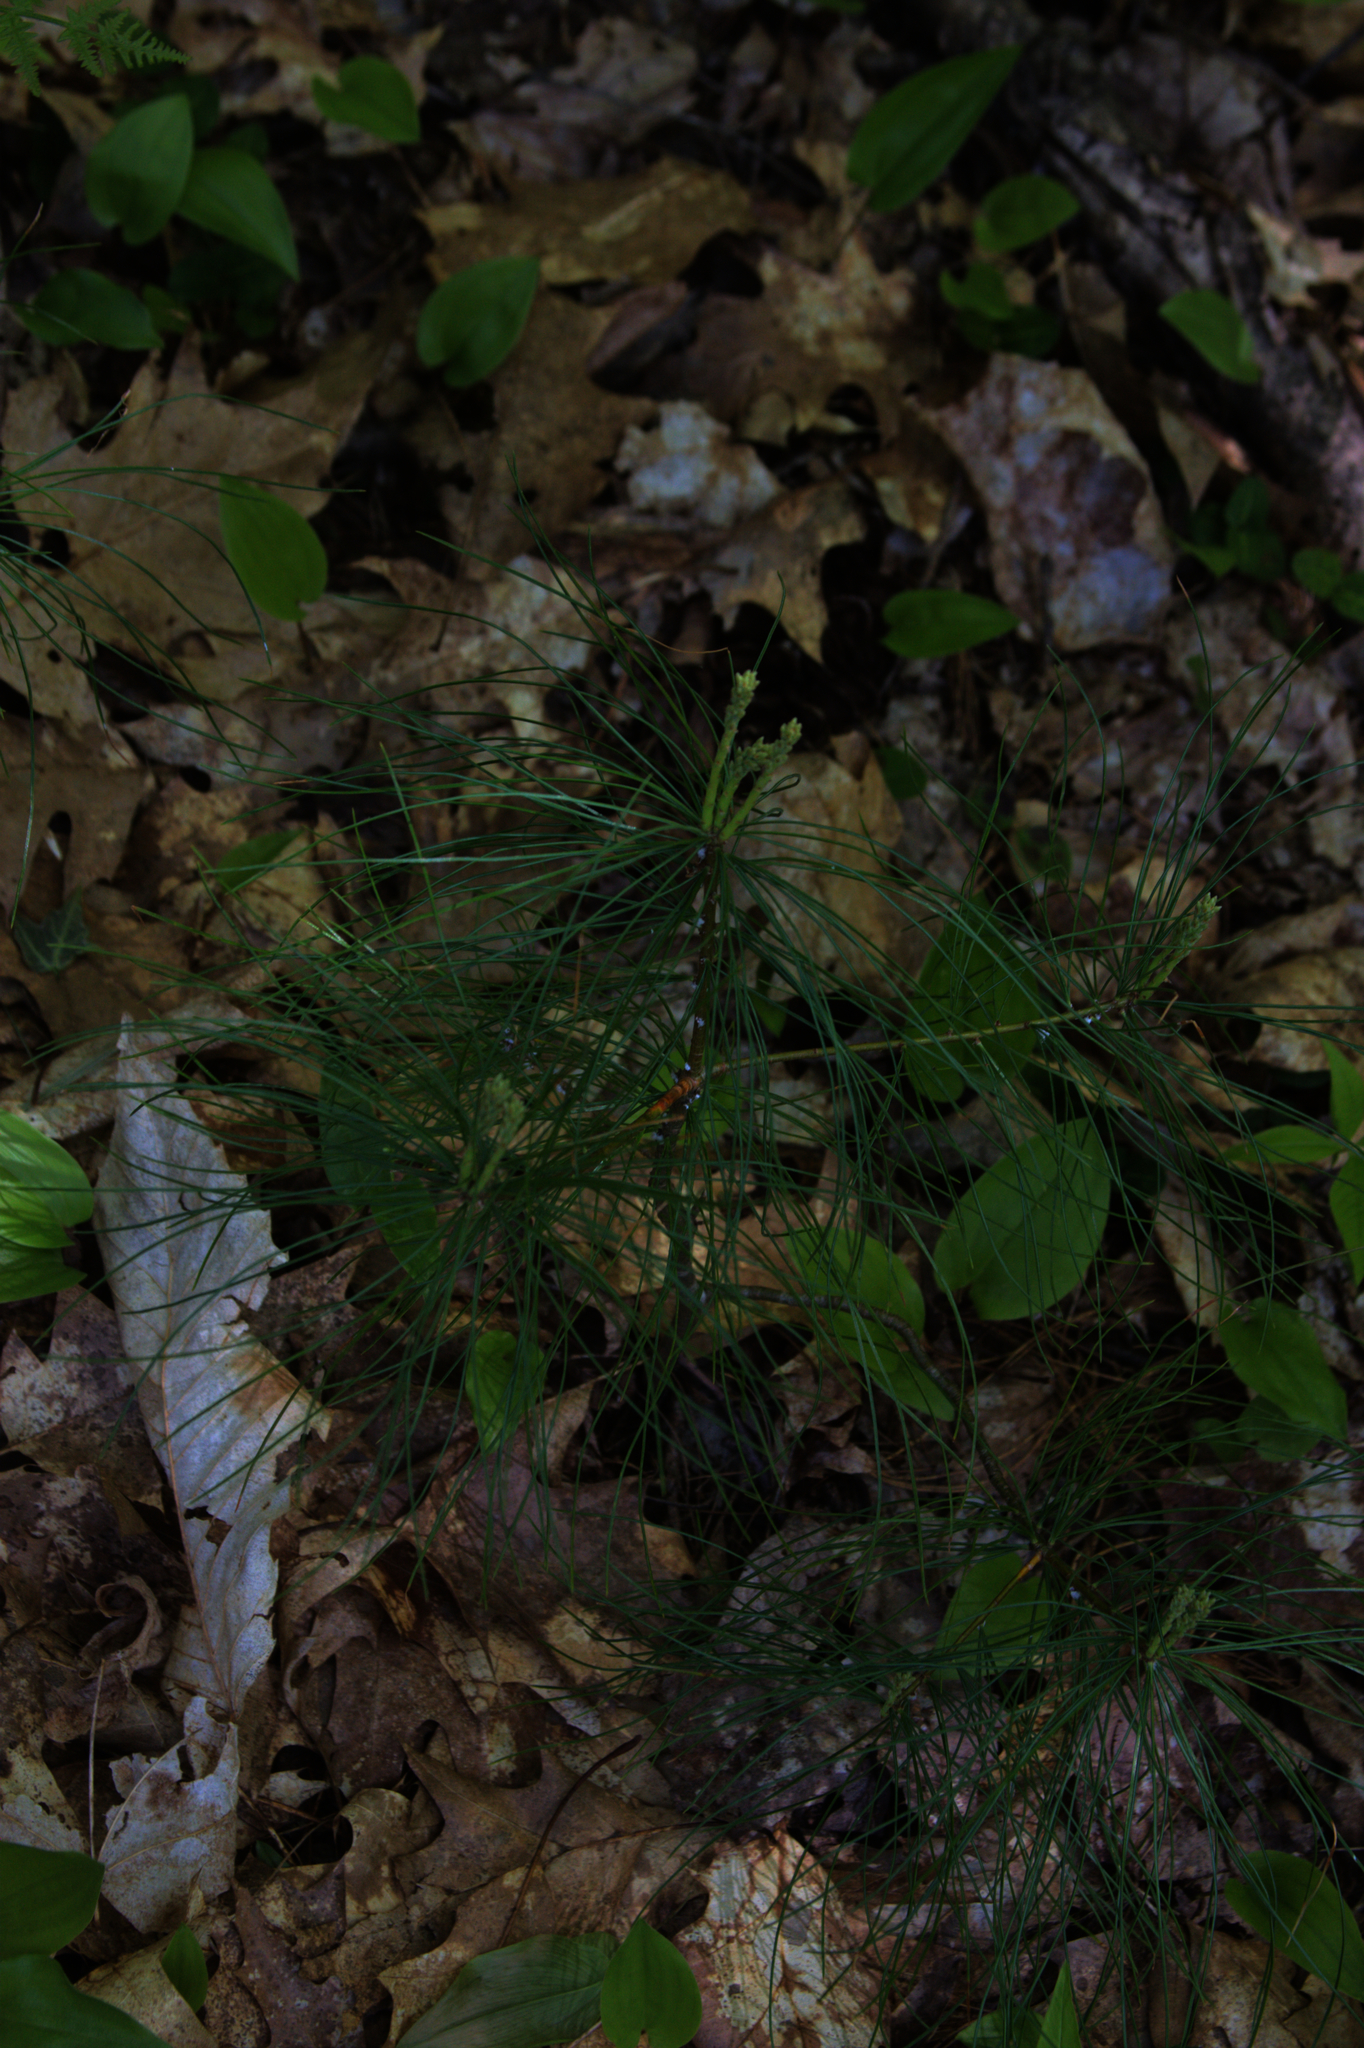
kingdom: Plantae
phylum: Tracheophyta
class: Pinopsida
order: Pinales
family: Pinaceae
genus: Pinus
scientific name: Pinus strobus
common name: Weymouth pine
